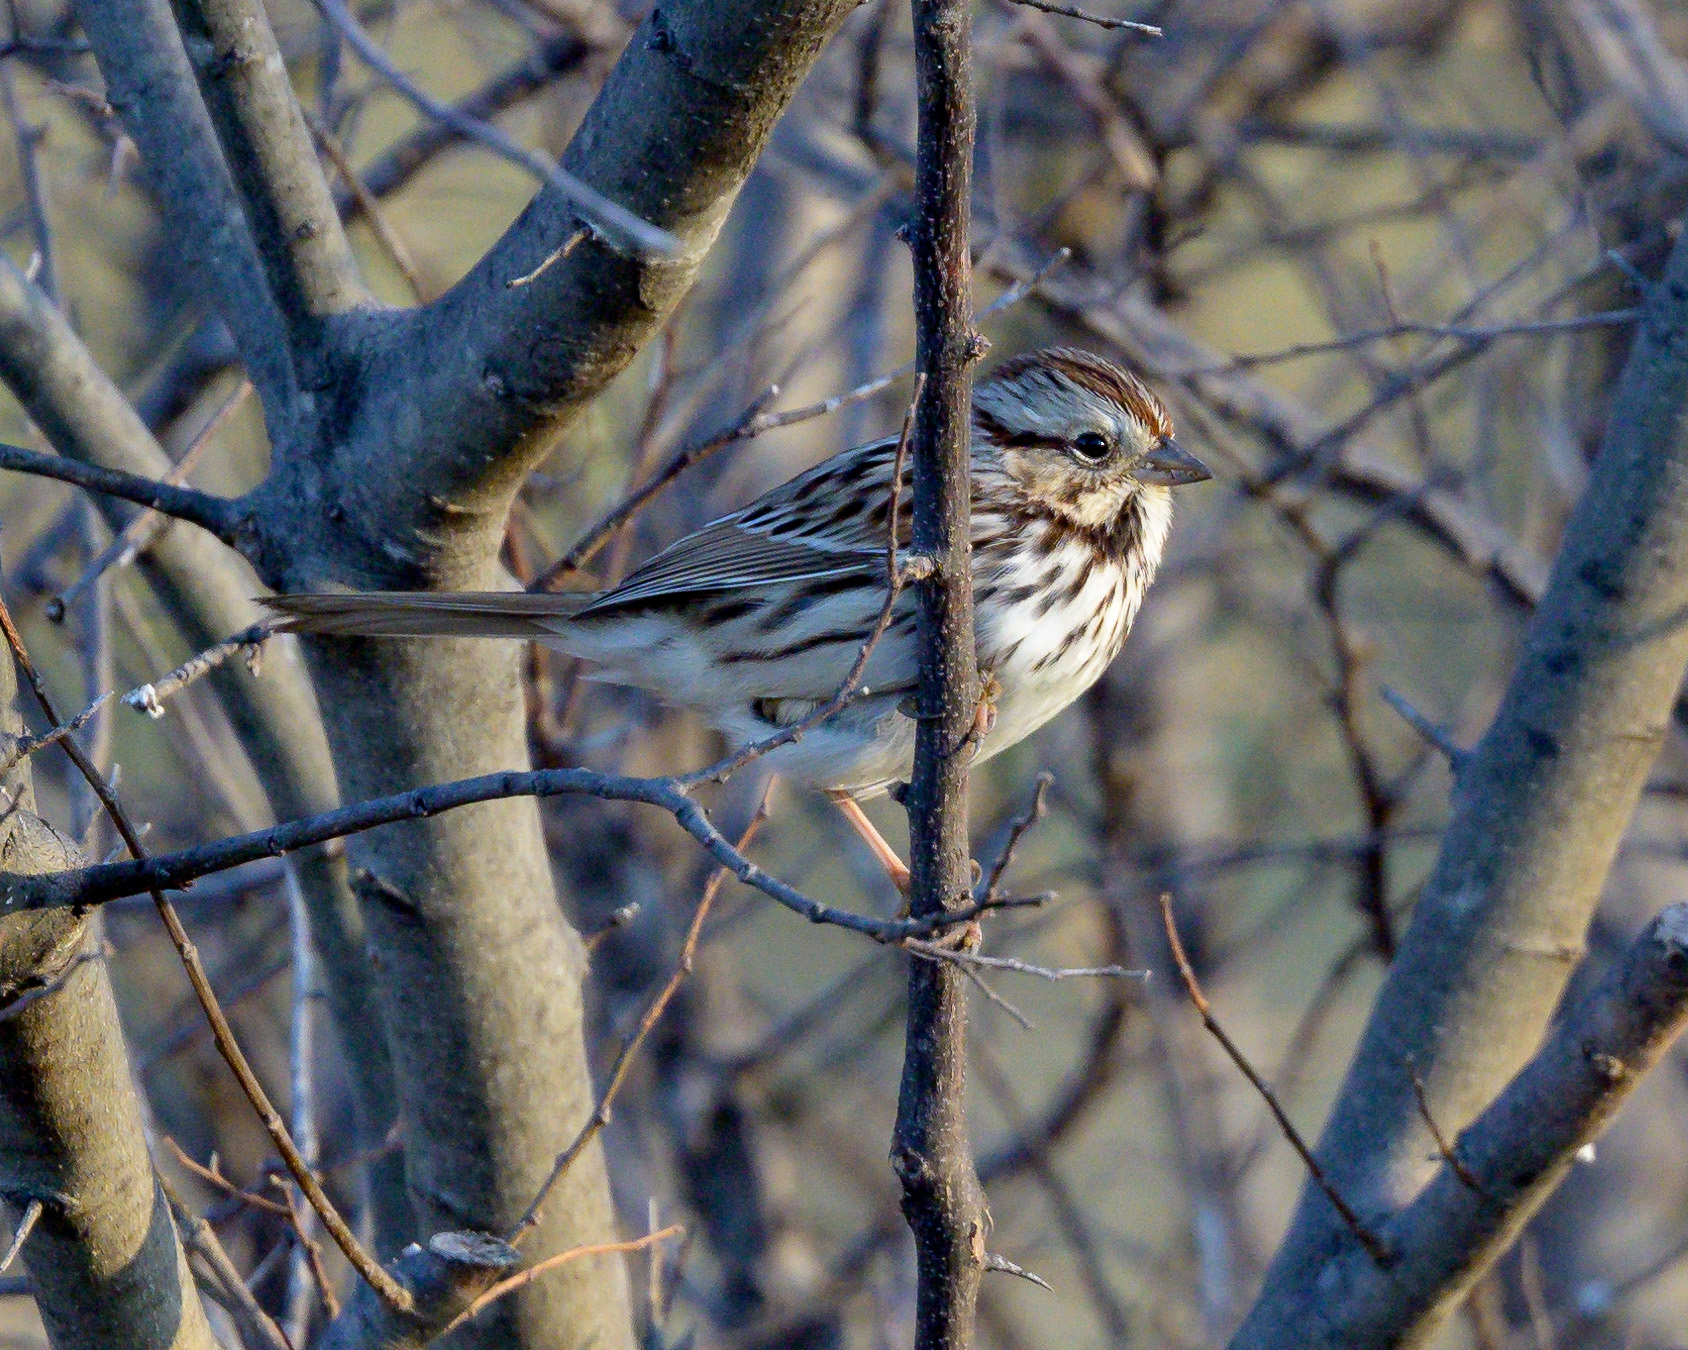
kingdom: Animalia
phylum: Chordata
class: Aves
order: Passeriformes
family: Passerellidae
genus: Melospiza
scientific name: Melospiza melodia
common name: Song sparrow
